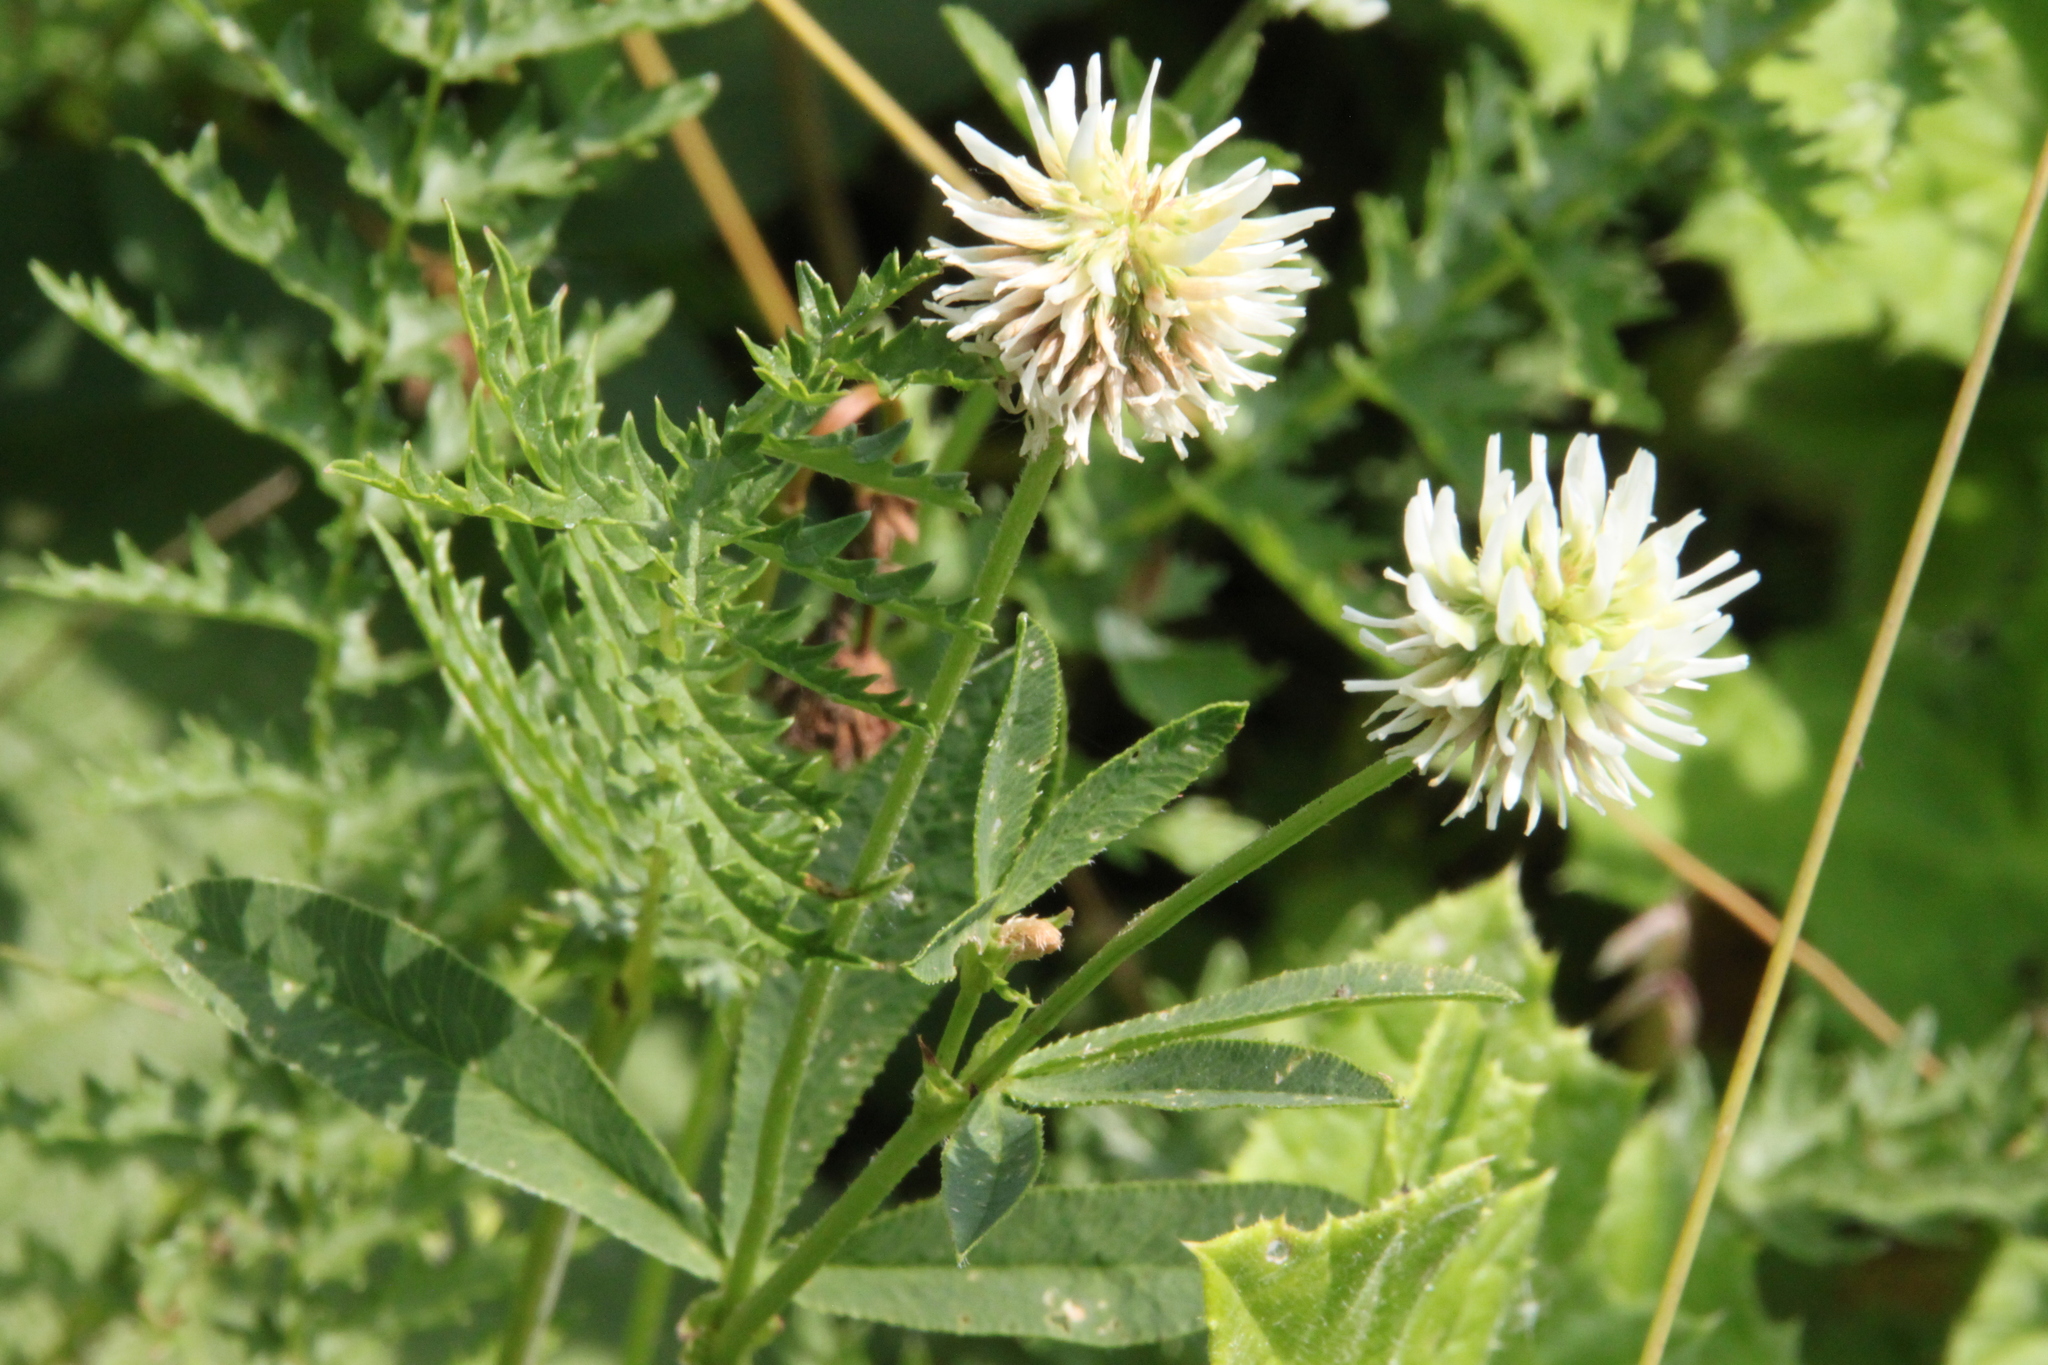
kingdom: Plantae
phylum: Tracheophyta
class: Magnoliopsida
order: Fabales
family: Fabaceae
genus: Trifolium
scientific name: Trifolium montanum
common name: Mountain clover
